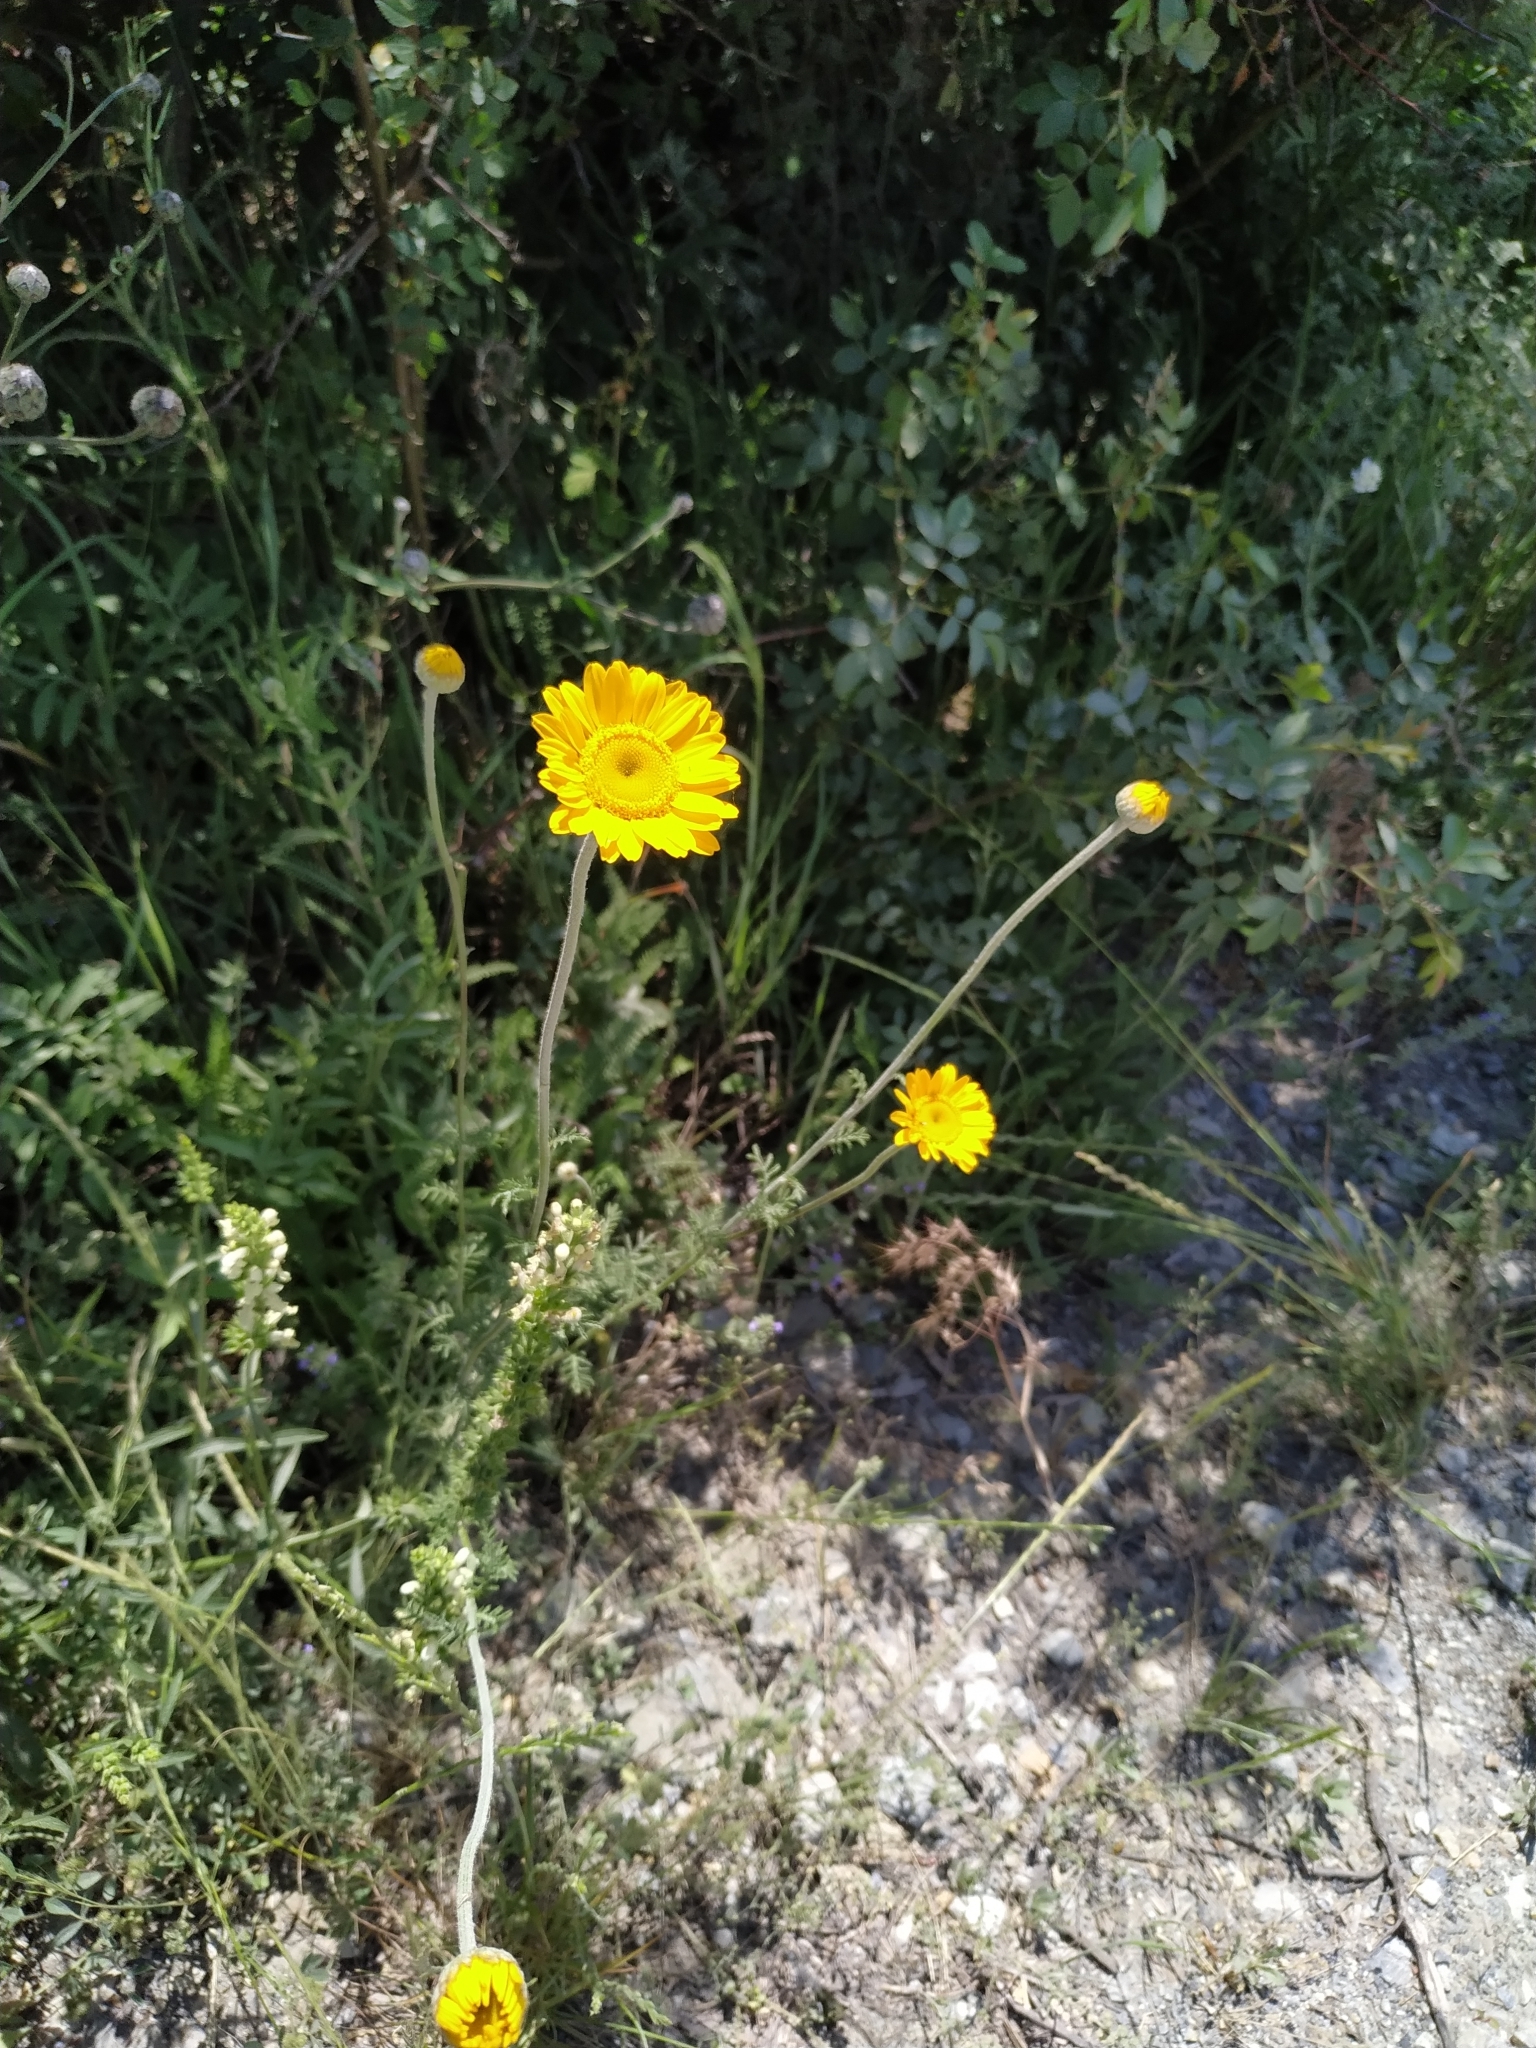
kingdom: Plantae
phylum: Tracheophyta
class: Magnoliopsida
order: Asterales
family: Asteraceae
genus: Cota
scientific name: Cota tinctoria
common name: Golden chamomile
